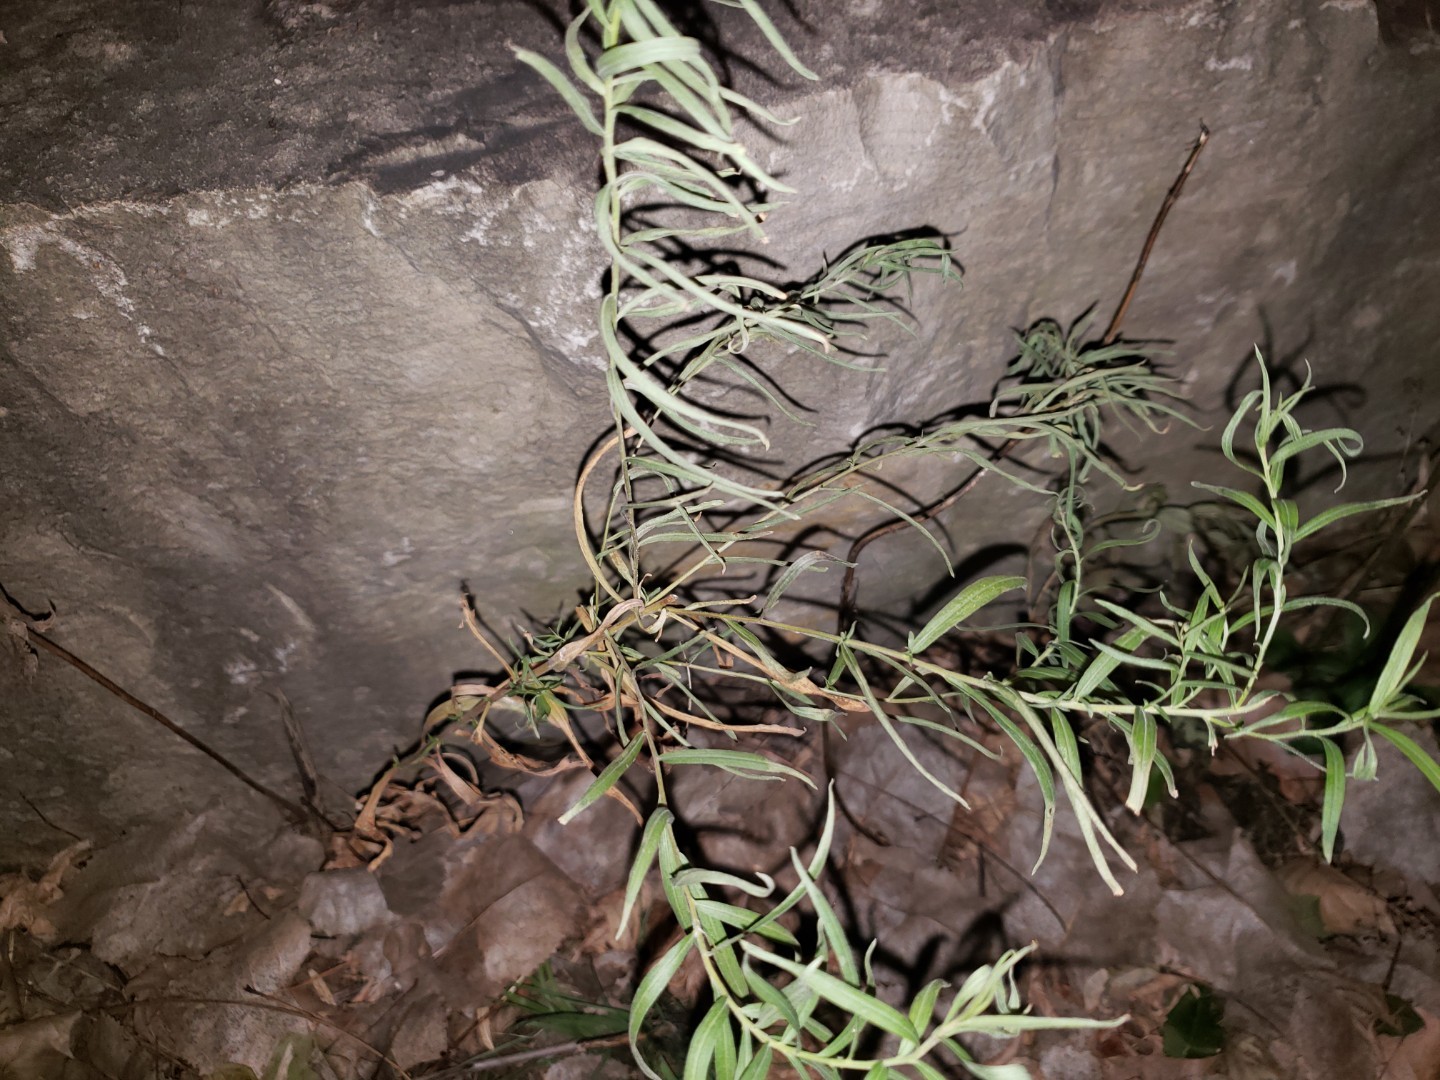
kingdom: Plantae
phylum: Tracheophyta
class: Magnoliopsida
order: Lamiales
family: Plantaginaceae
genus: Linaria
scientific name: Linaria vulgaris
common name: Butter and eggs
